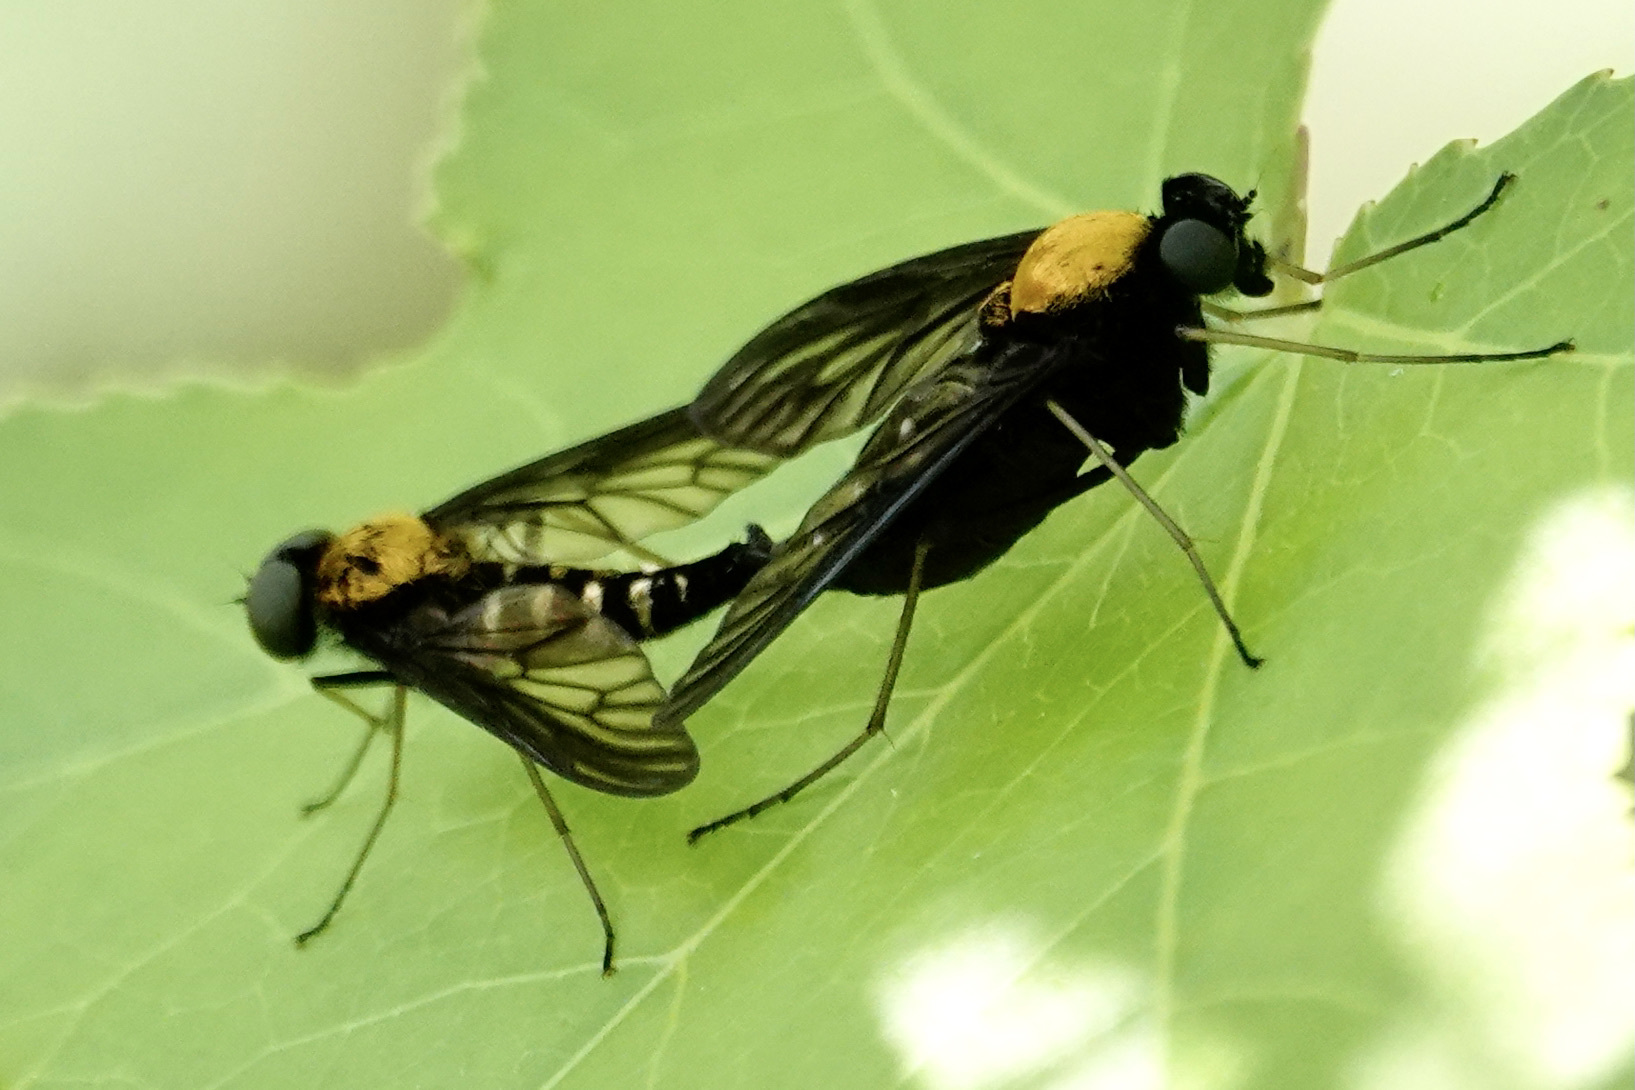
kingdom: Animalia
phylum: Arthropoda
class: Insecta
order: Diptera
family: Rhagionidae
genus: Chrysopilus
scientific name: Chrysopilus thoracicus
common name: Golden-backed snipe fly
